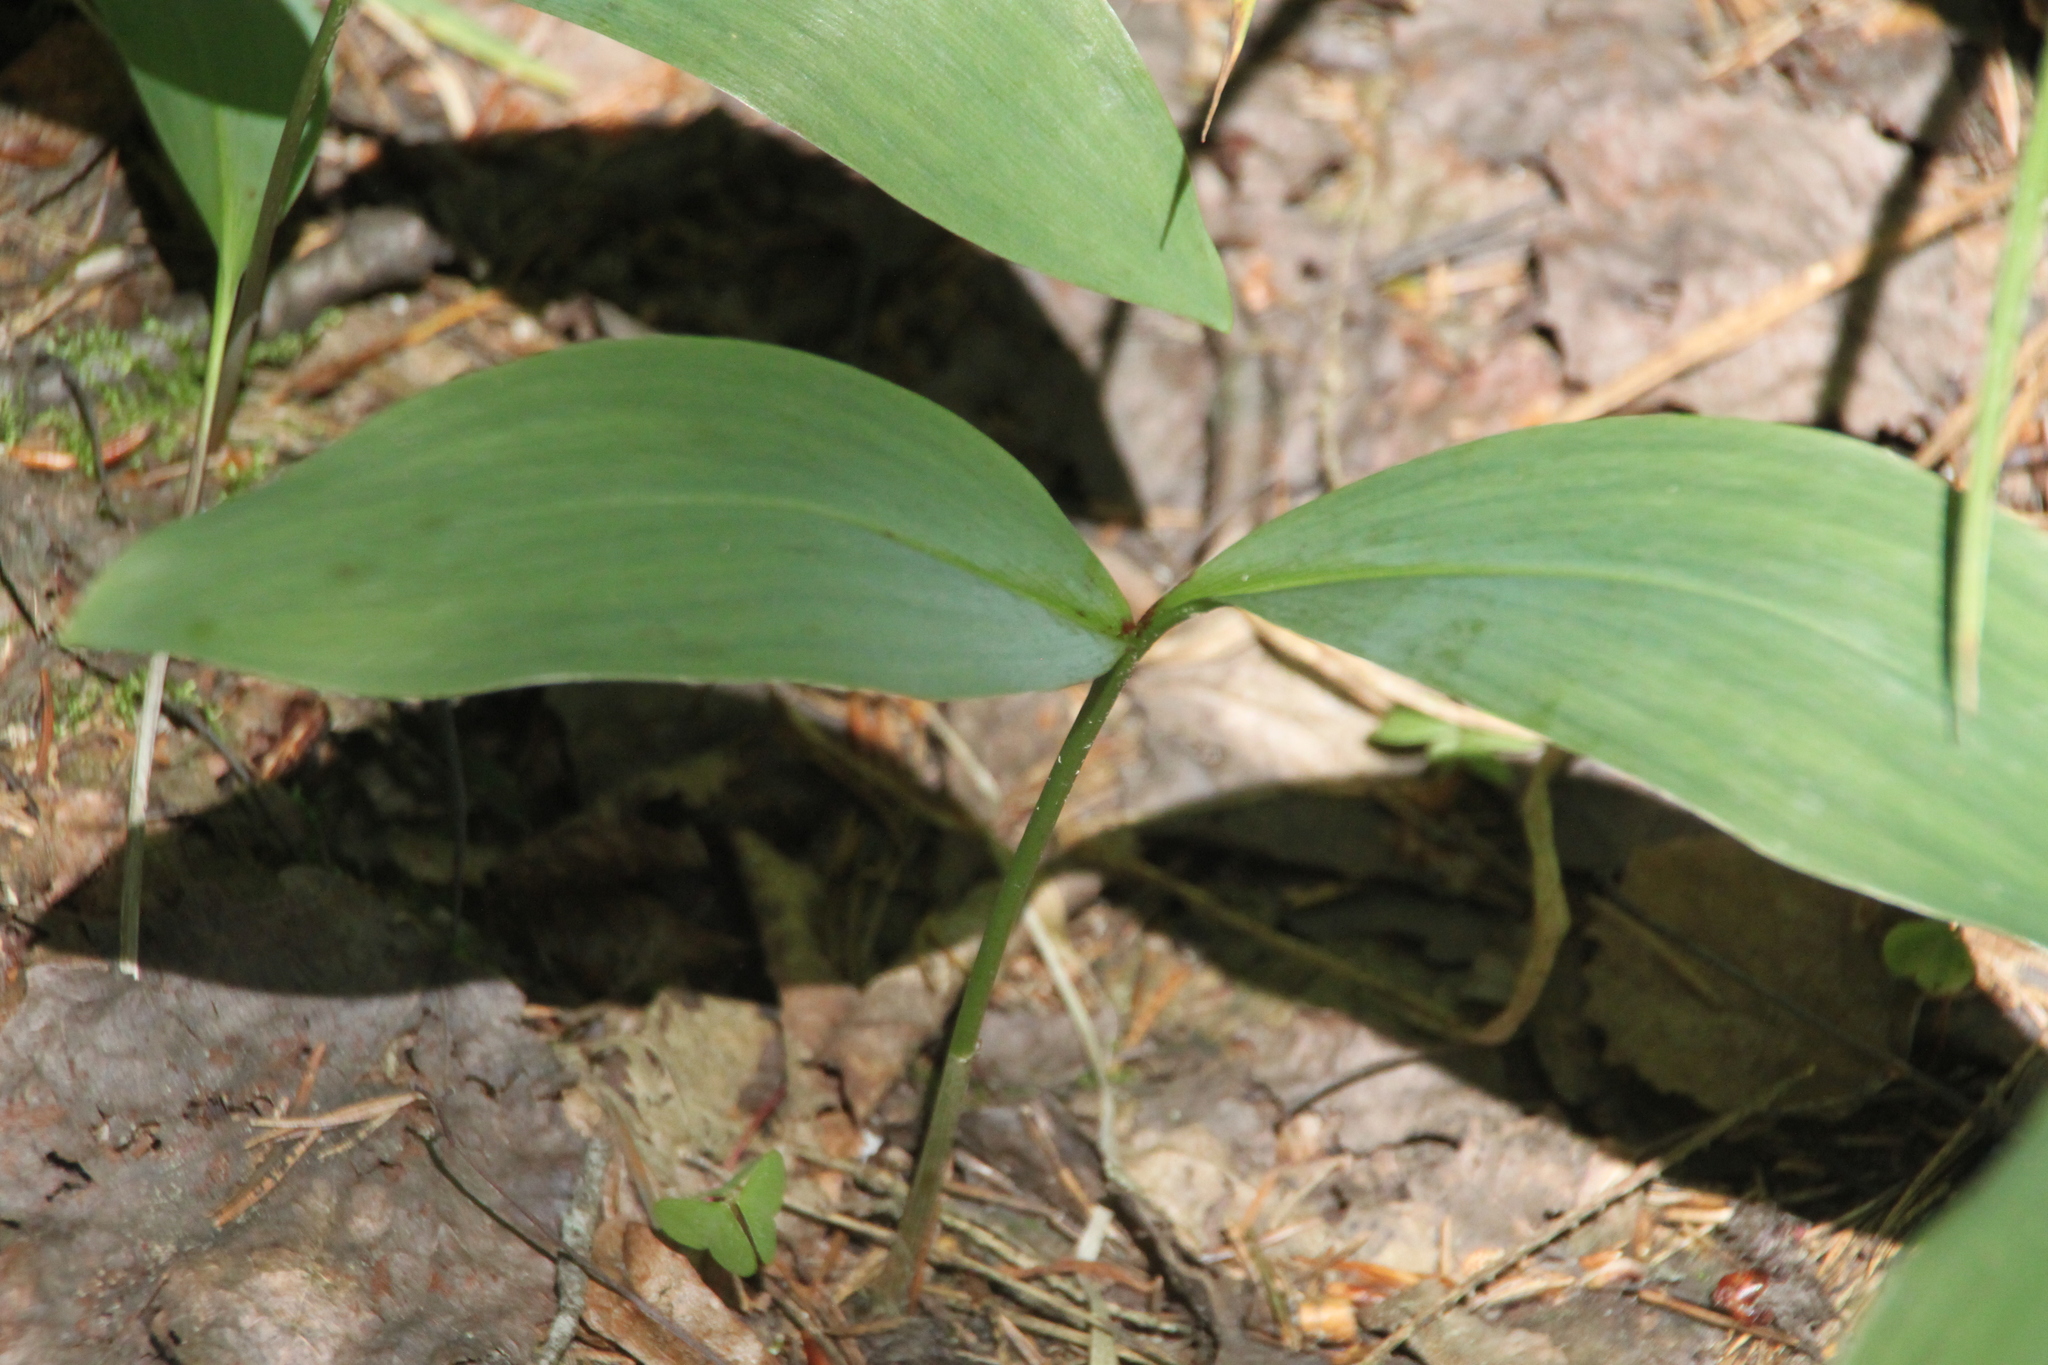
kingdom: Plantae
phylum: Tracheophyta
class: Liliopsida
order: Asparagales
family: Asparagaceae
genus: Convallaria
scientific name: Convallaria majalis
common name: Lily-of-the-valley
